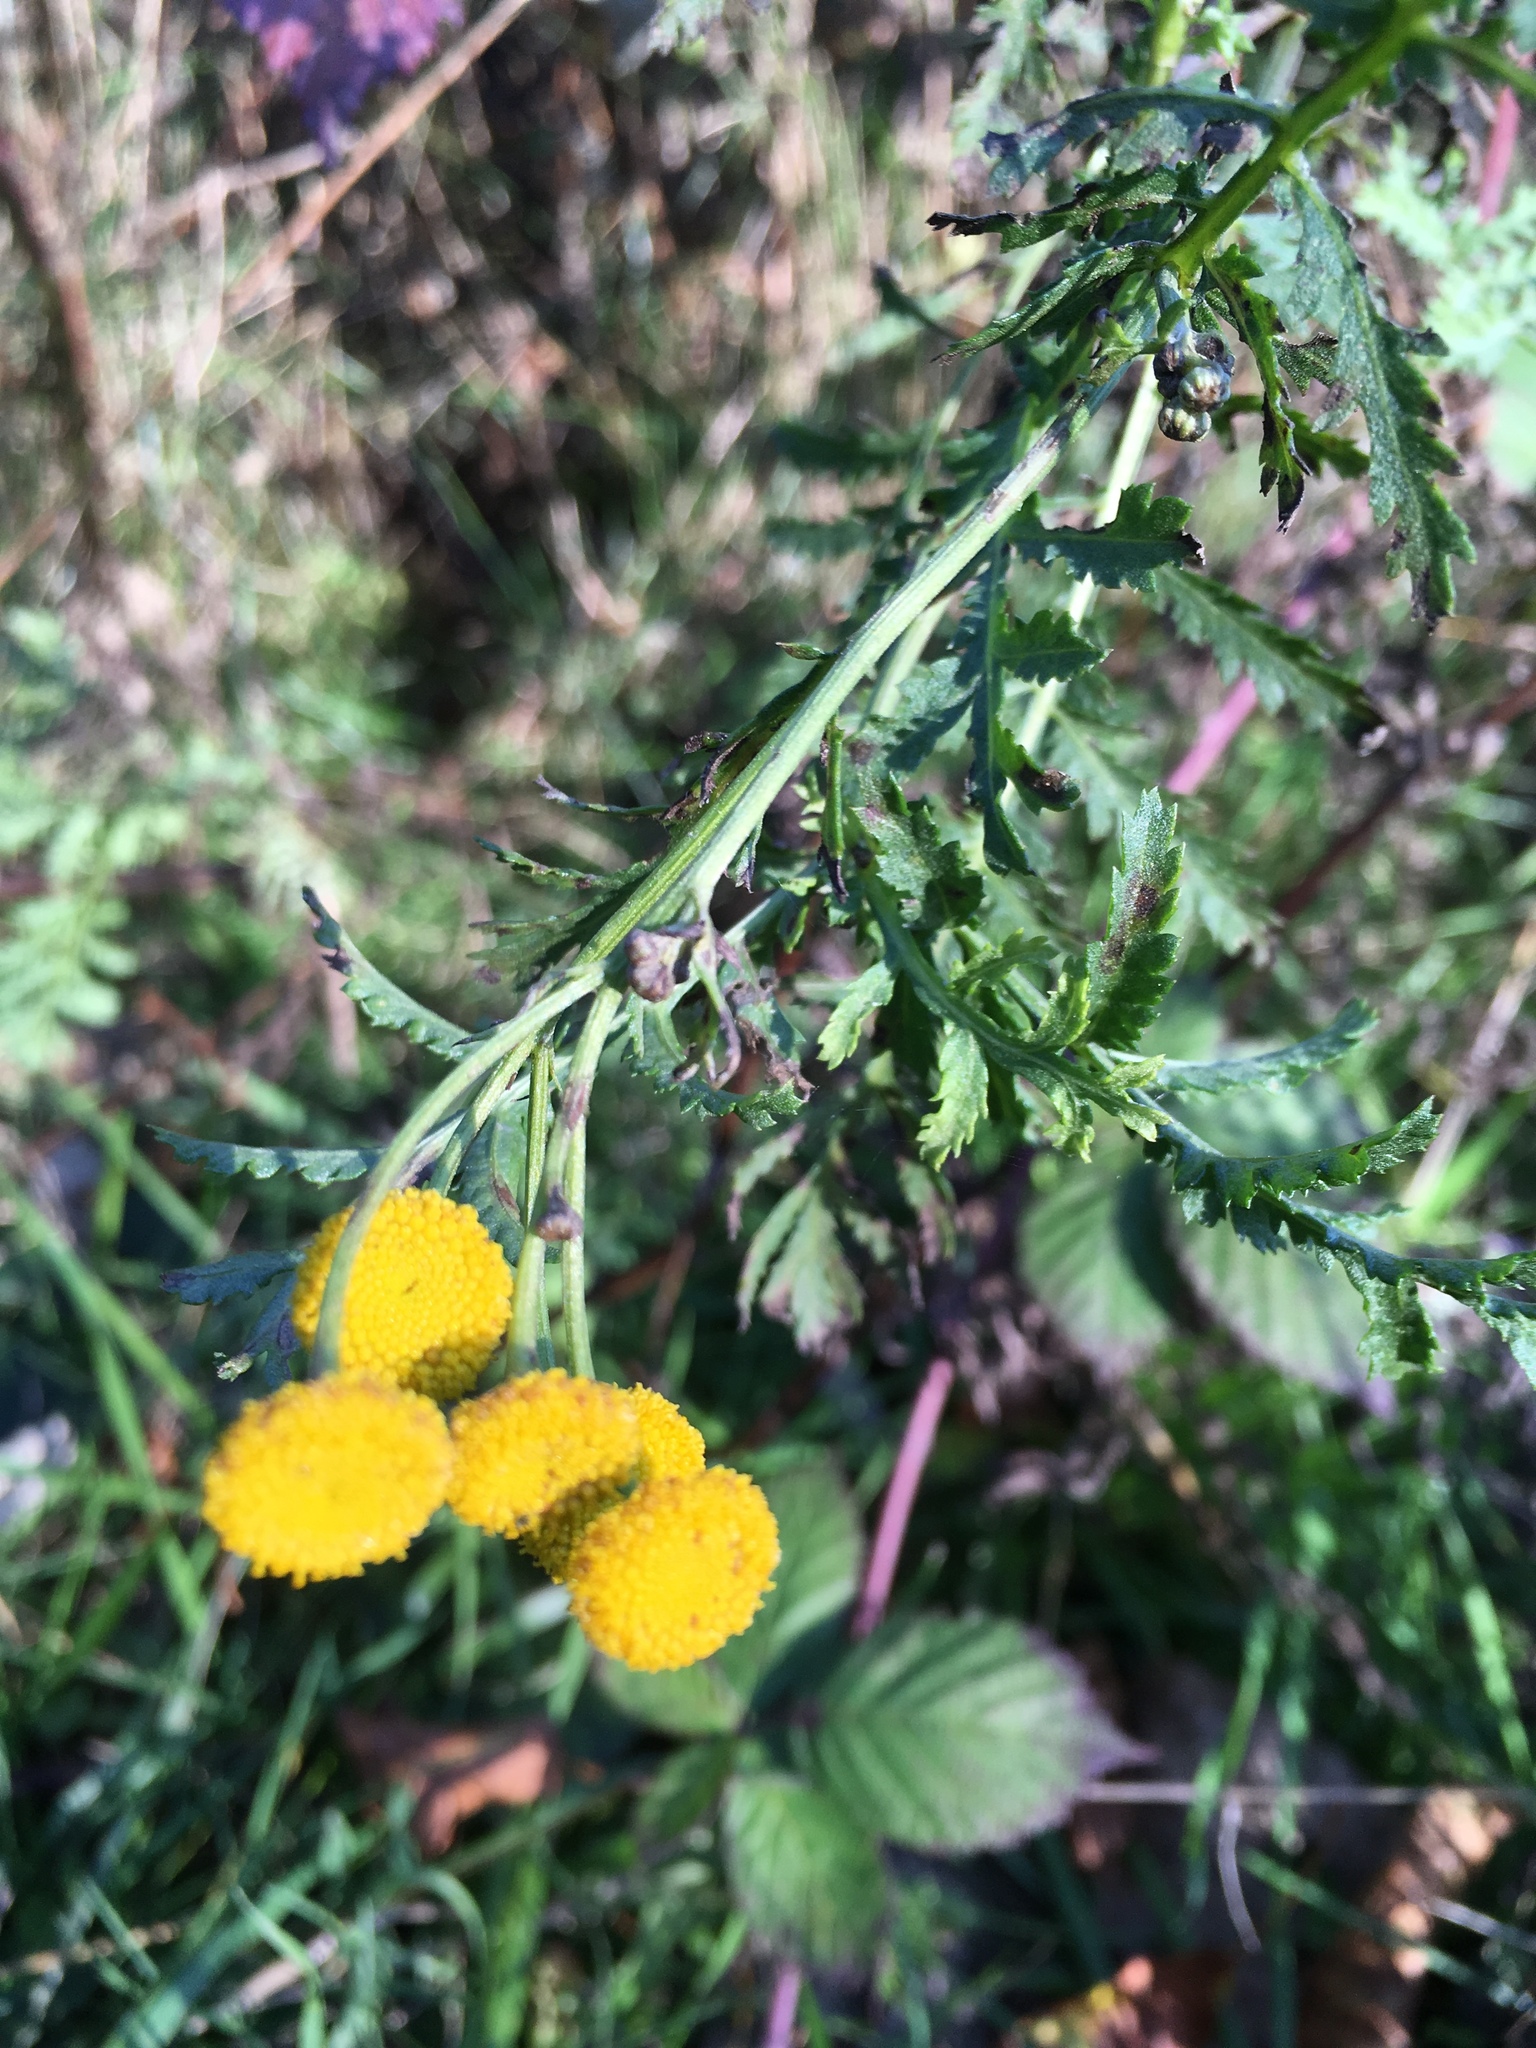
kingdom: Plantae
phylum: Tracheophyta
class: Magnoliopsida
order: Asterales
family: Asteraceae
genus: Tanacetum
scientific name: Tanacetum vulgare
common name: Common tansy
